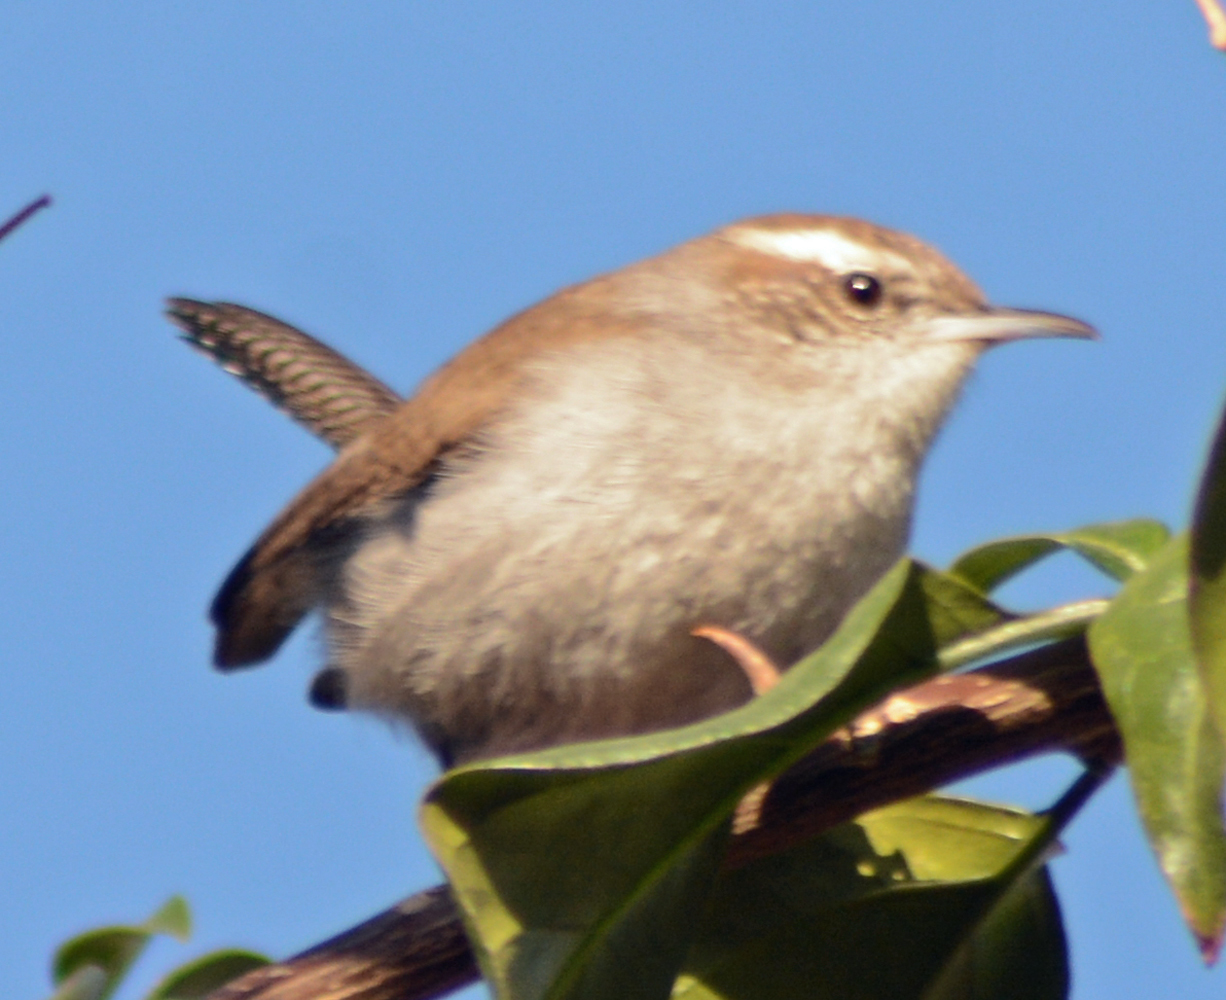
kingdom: Animalia
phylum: Chordata
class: Aves
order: Passeriformes
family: Troglodytidae
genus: Thryomanes
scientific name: Thryomanes bewickii
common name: Bewick's wren
